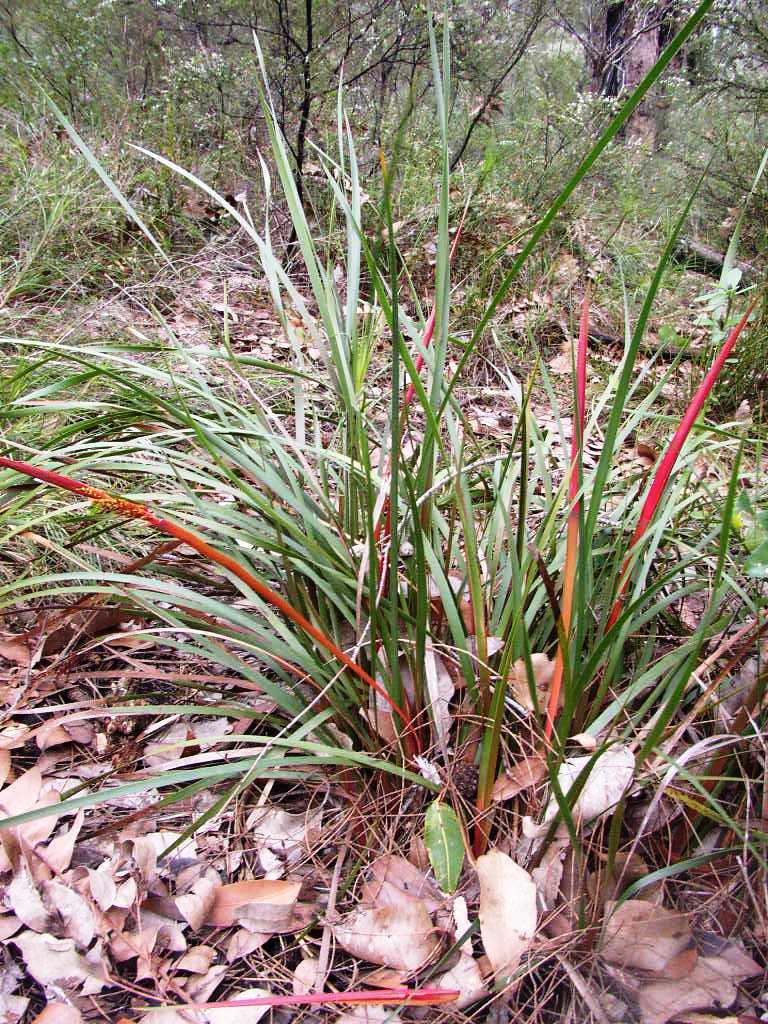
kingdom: Plantae
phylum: Tracheophyta
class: Liliopsida
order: Poales
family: Restionaceae
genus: Anarthria
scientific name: Anarthria scabra
